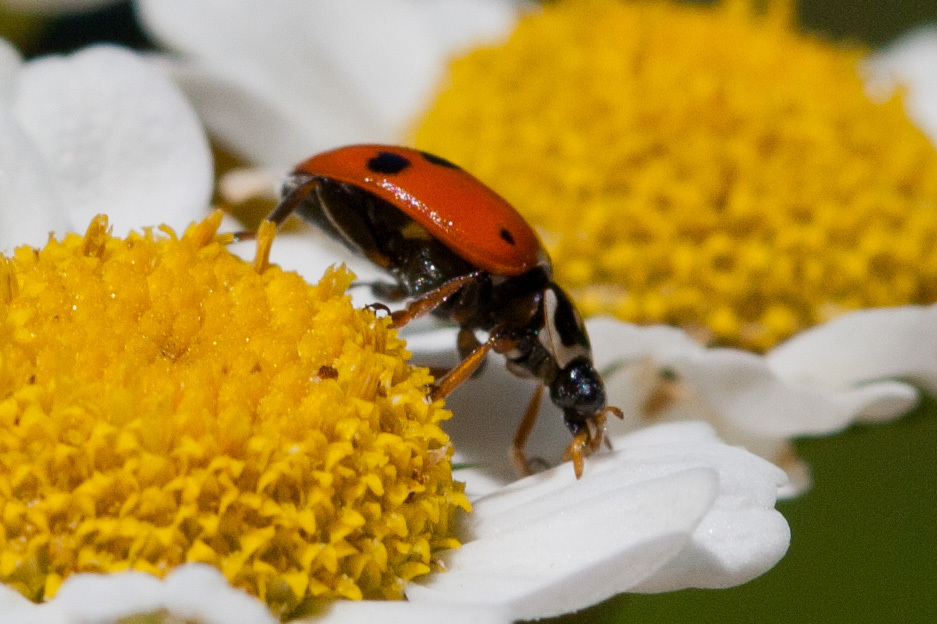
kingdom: Animalia
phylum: Arthropoda
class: Insecta
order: Coleoptera
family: Coccinellidae
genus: Hippodamia
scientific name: Hippodamia variegata
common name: Ladybird beetle
